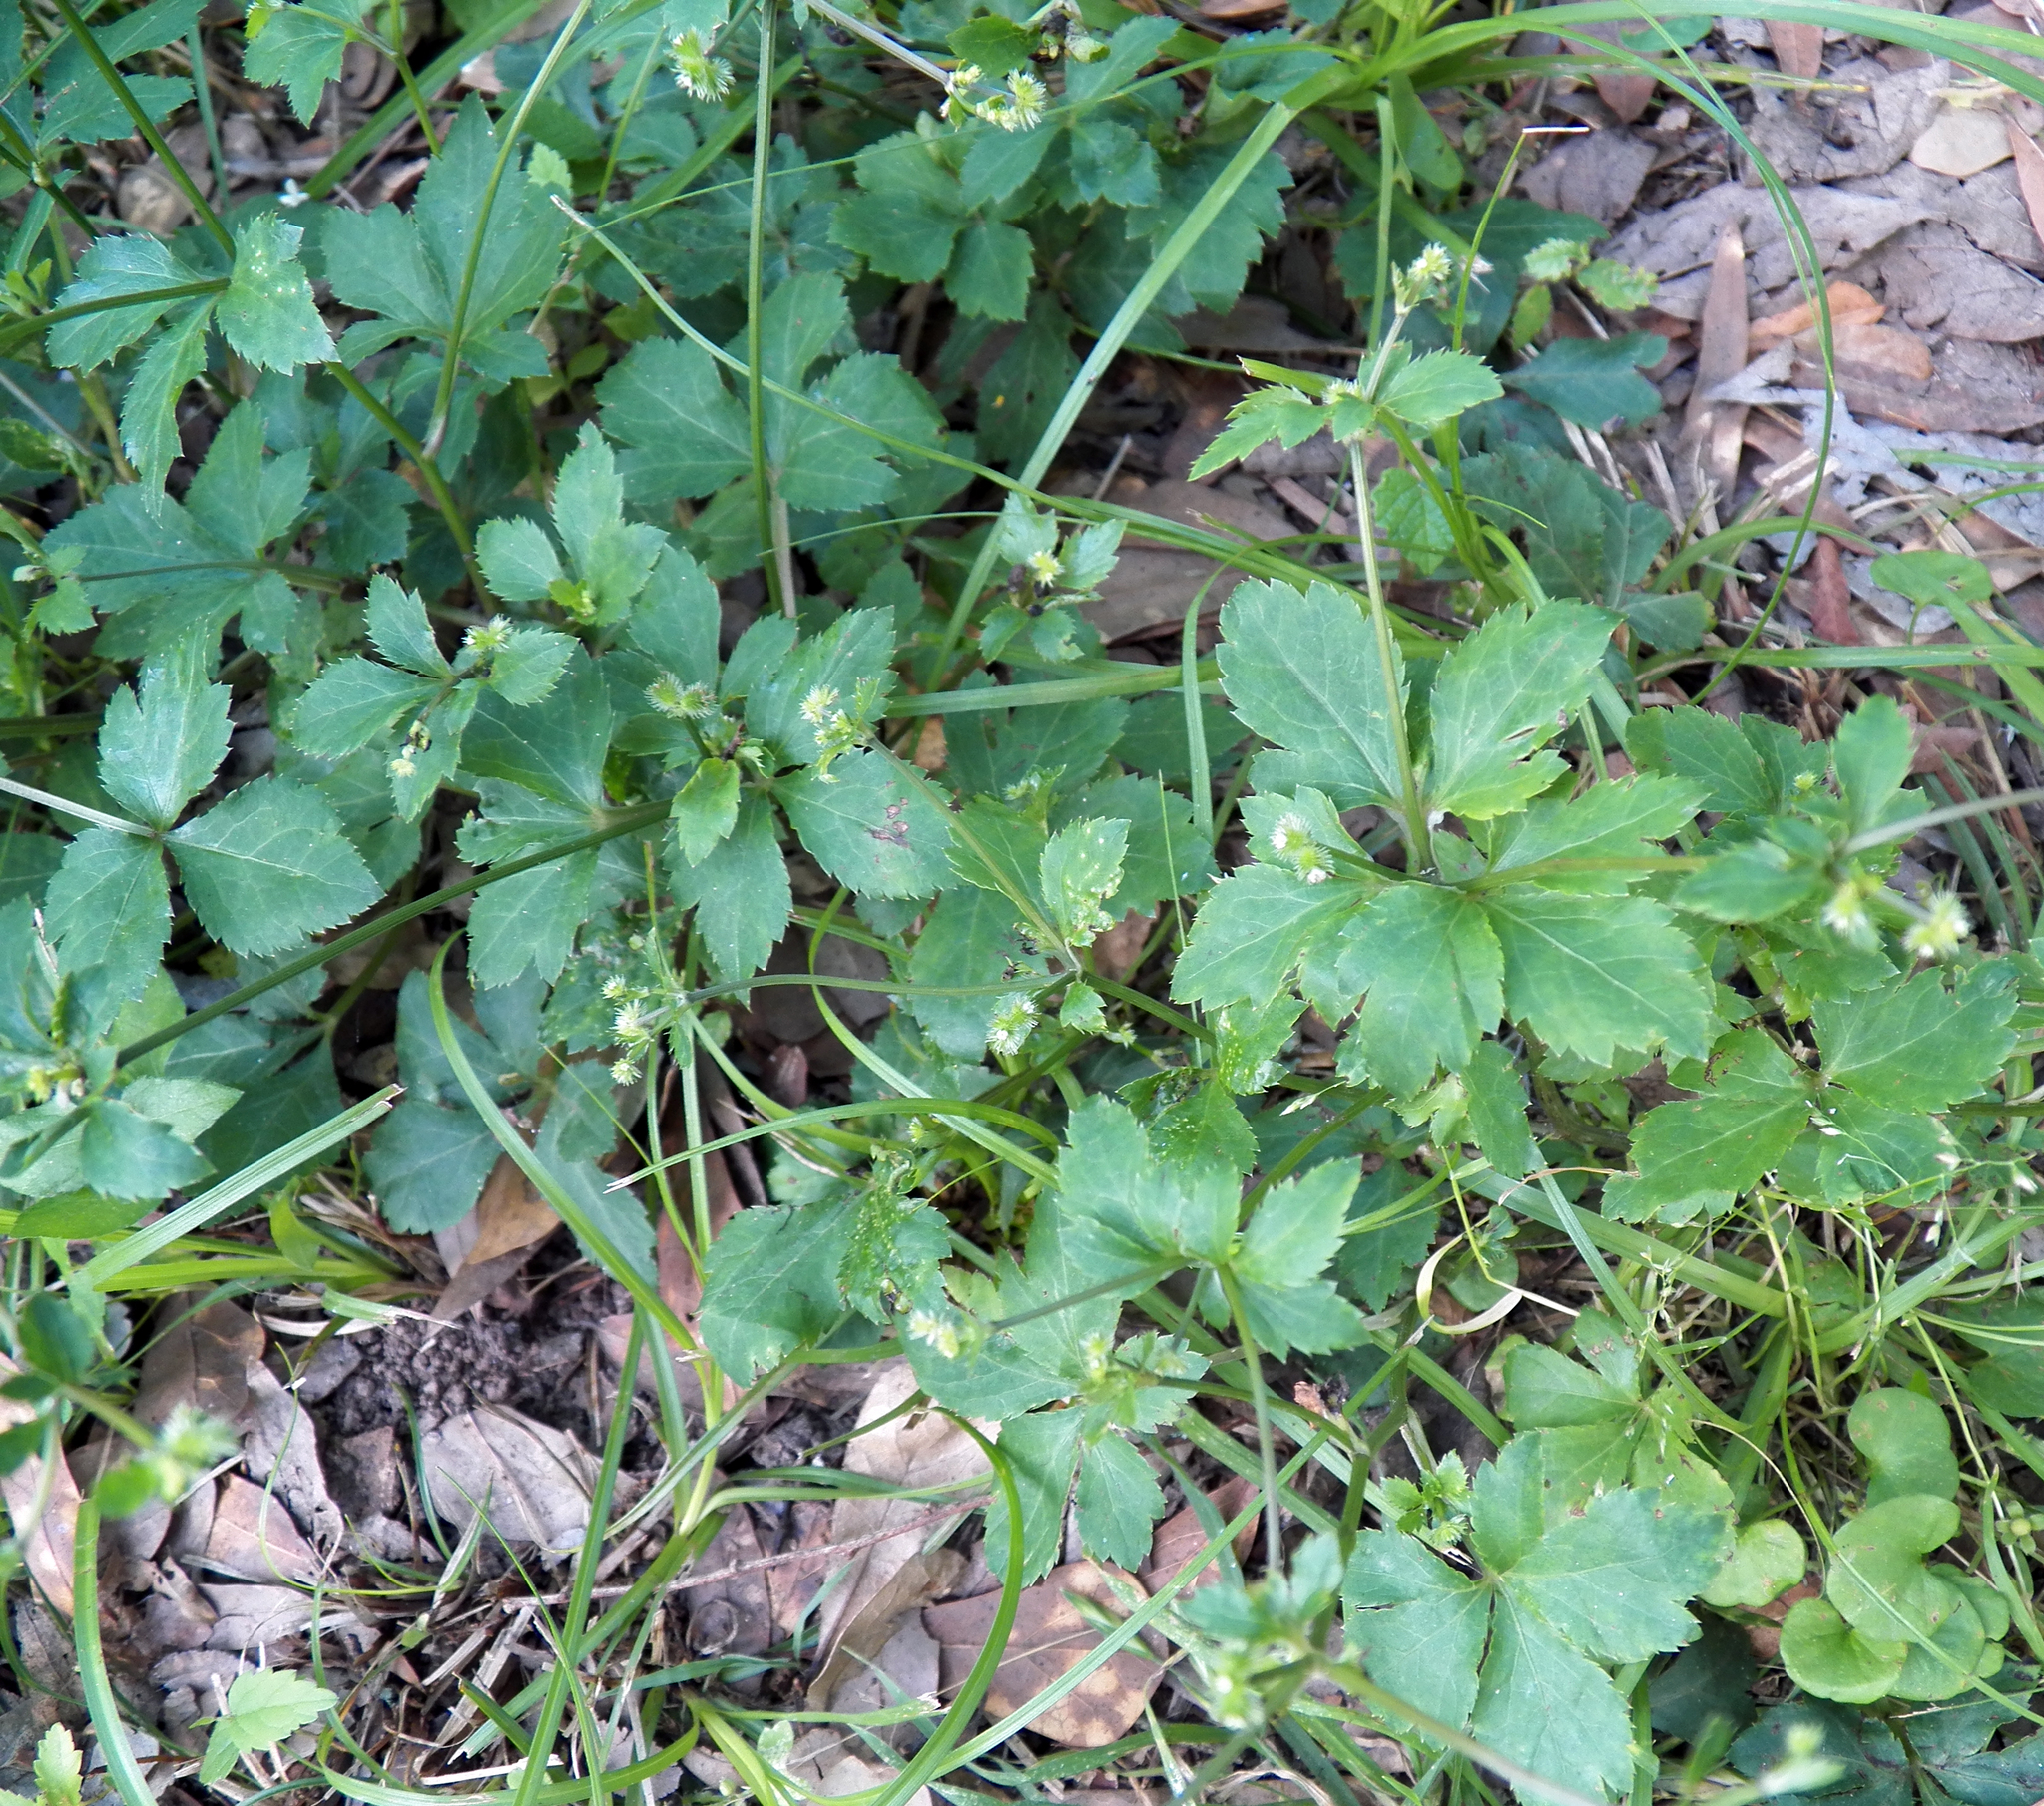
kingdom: Plantae
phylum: Tracheophyta
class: Magnoliopsida
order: Apiales
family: Apiaceae
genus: Sanicula
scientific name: Sanicula canadensis
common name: Canada sanicle
